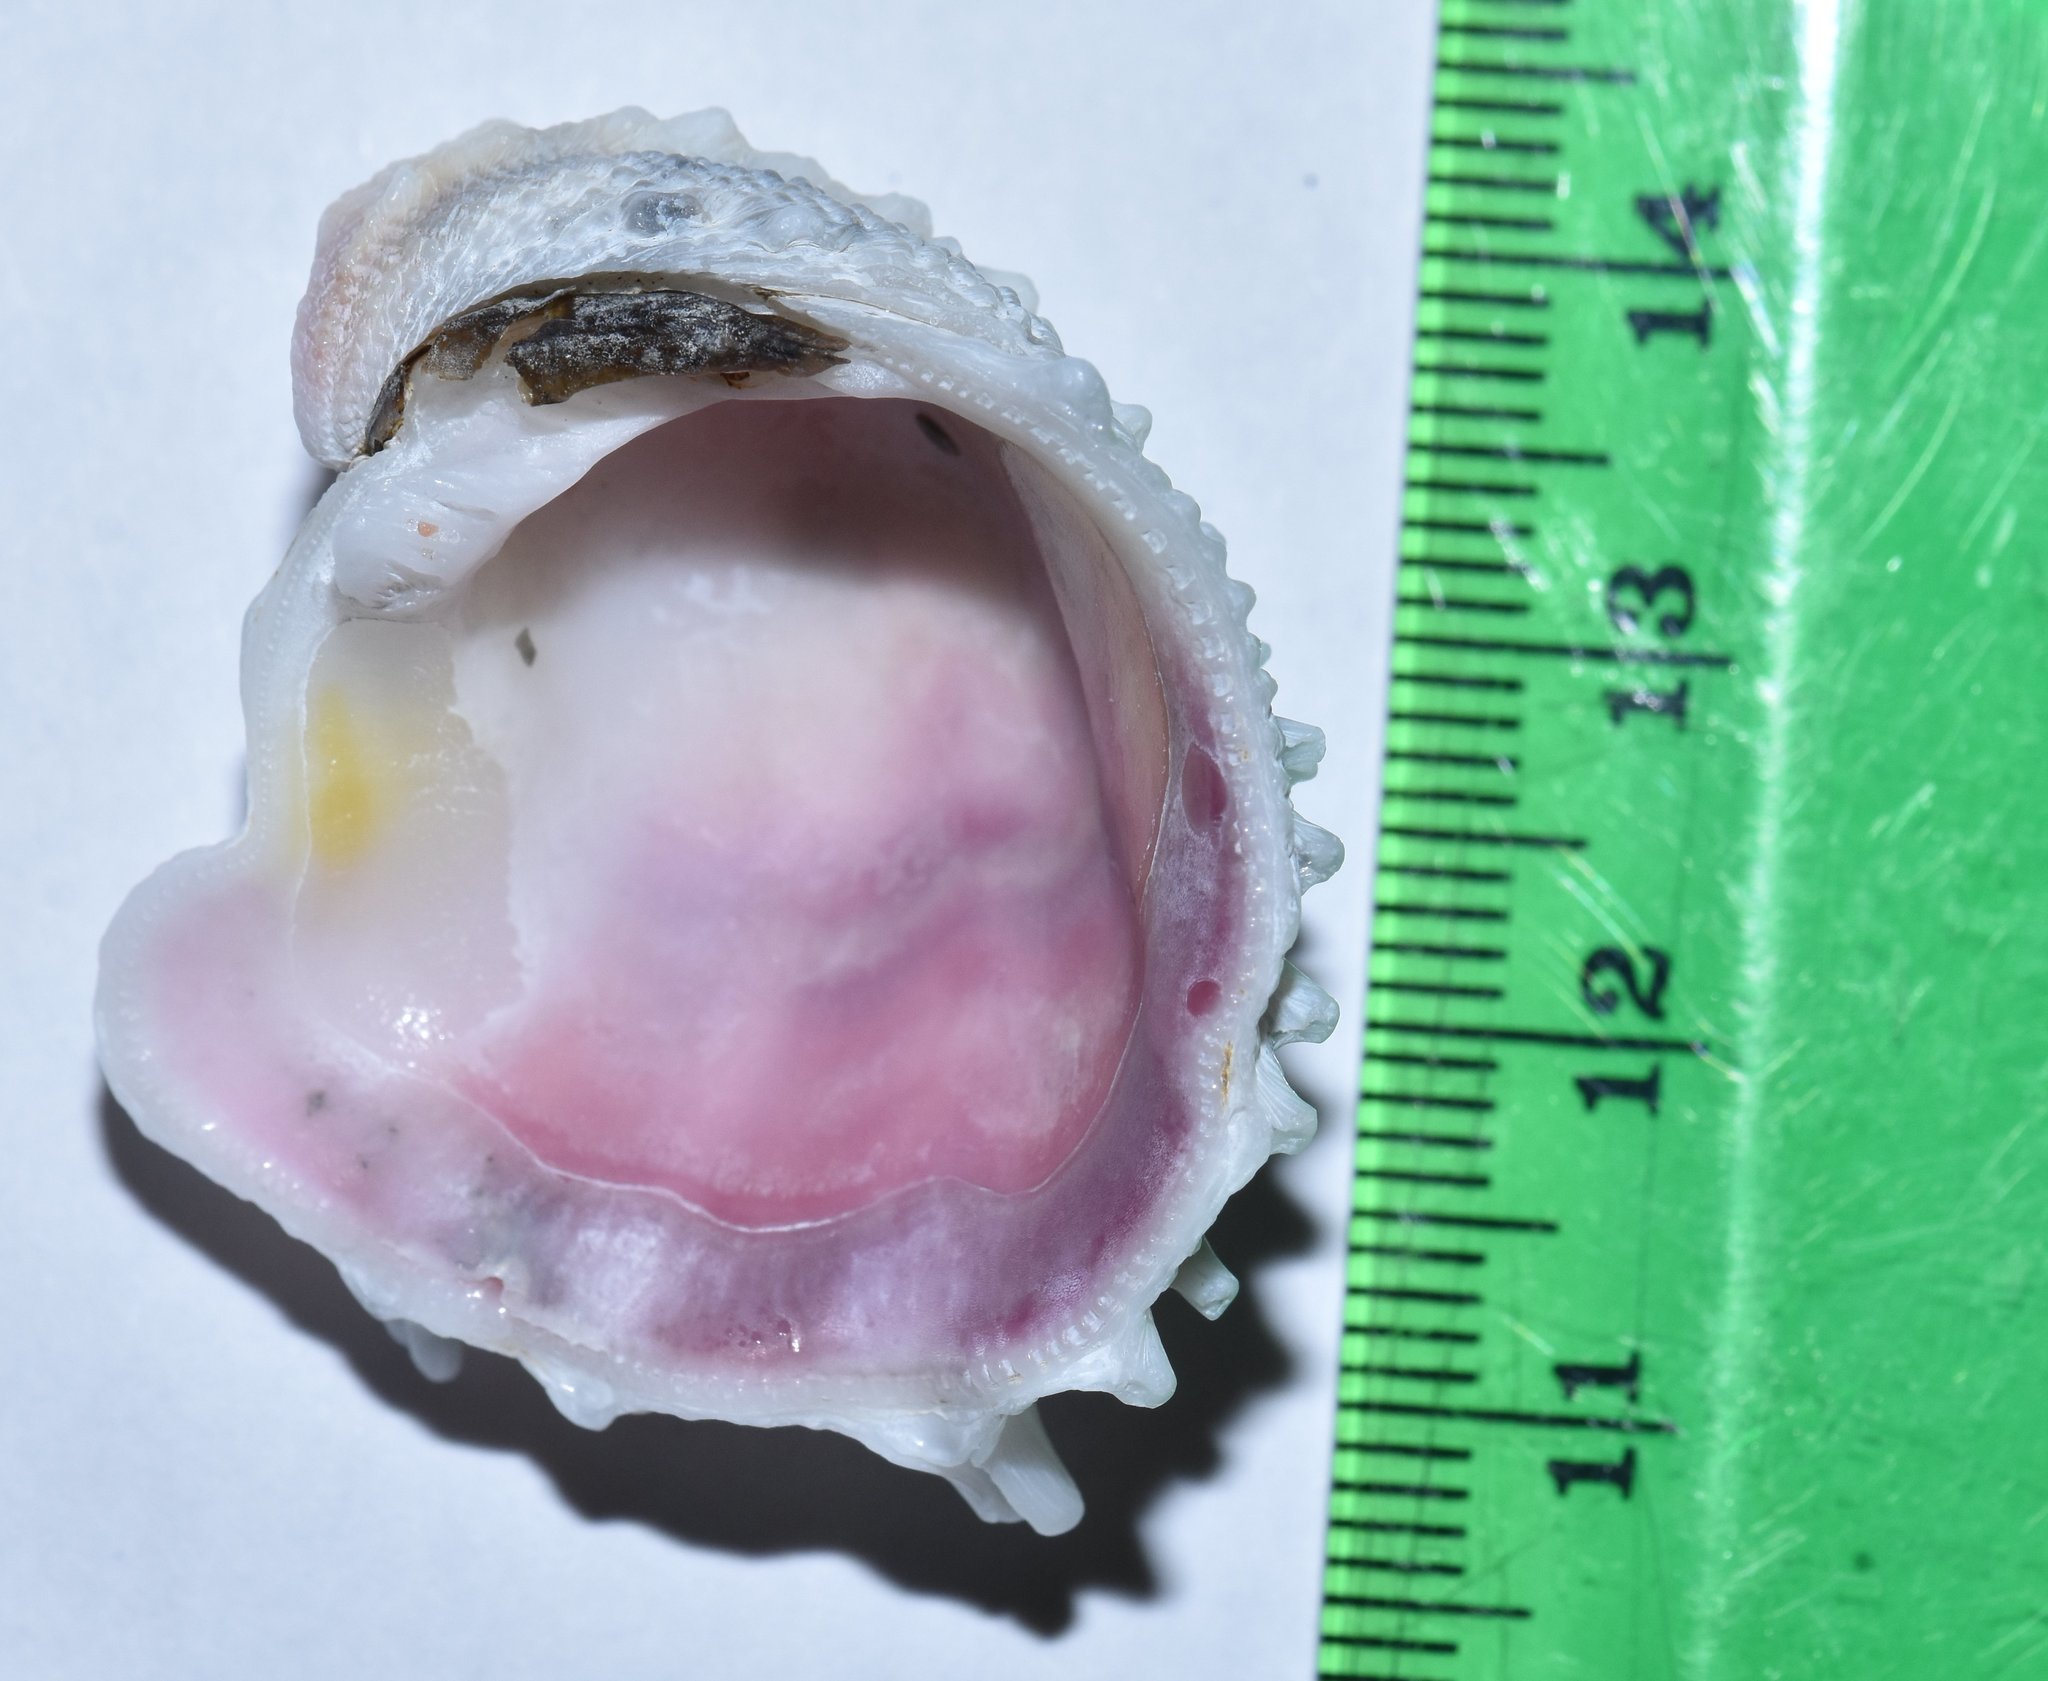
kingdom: Animalia
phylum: Mollusca
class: Bivalvia
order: Venerida
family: Chamidae
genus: Arcinella
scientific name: Arcinella cornuta
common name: Florida spiny jewel box
